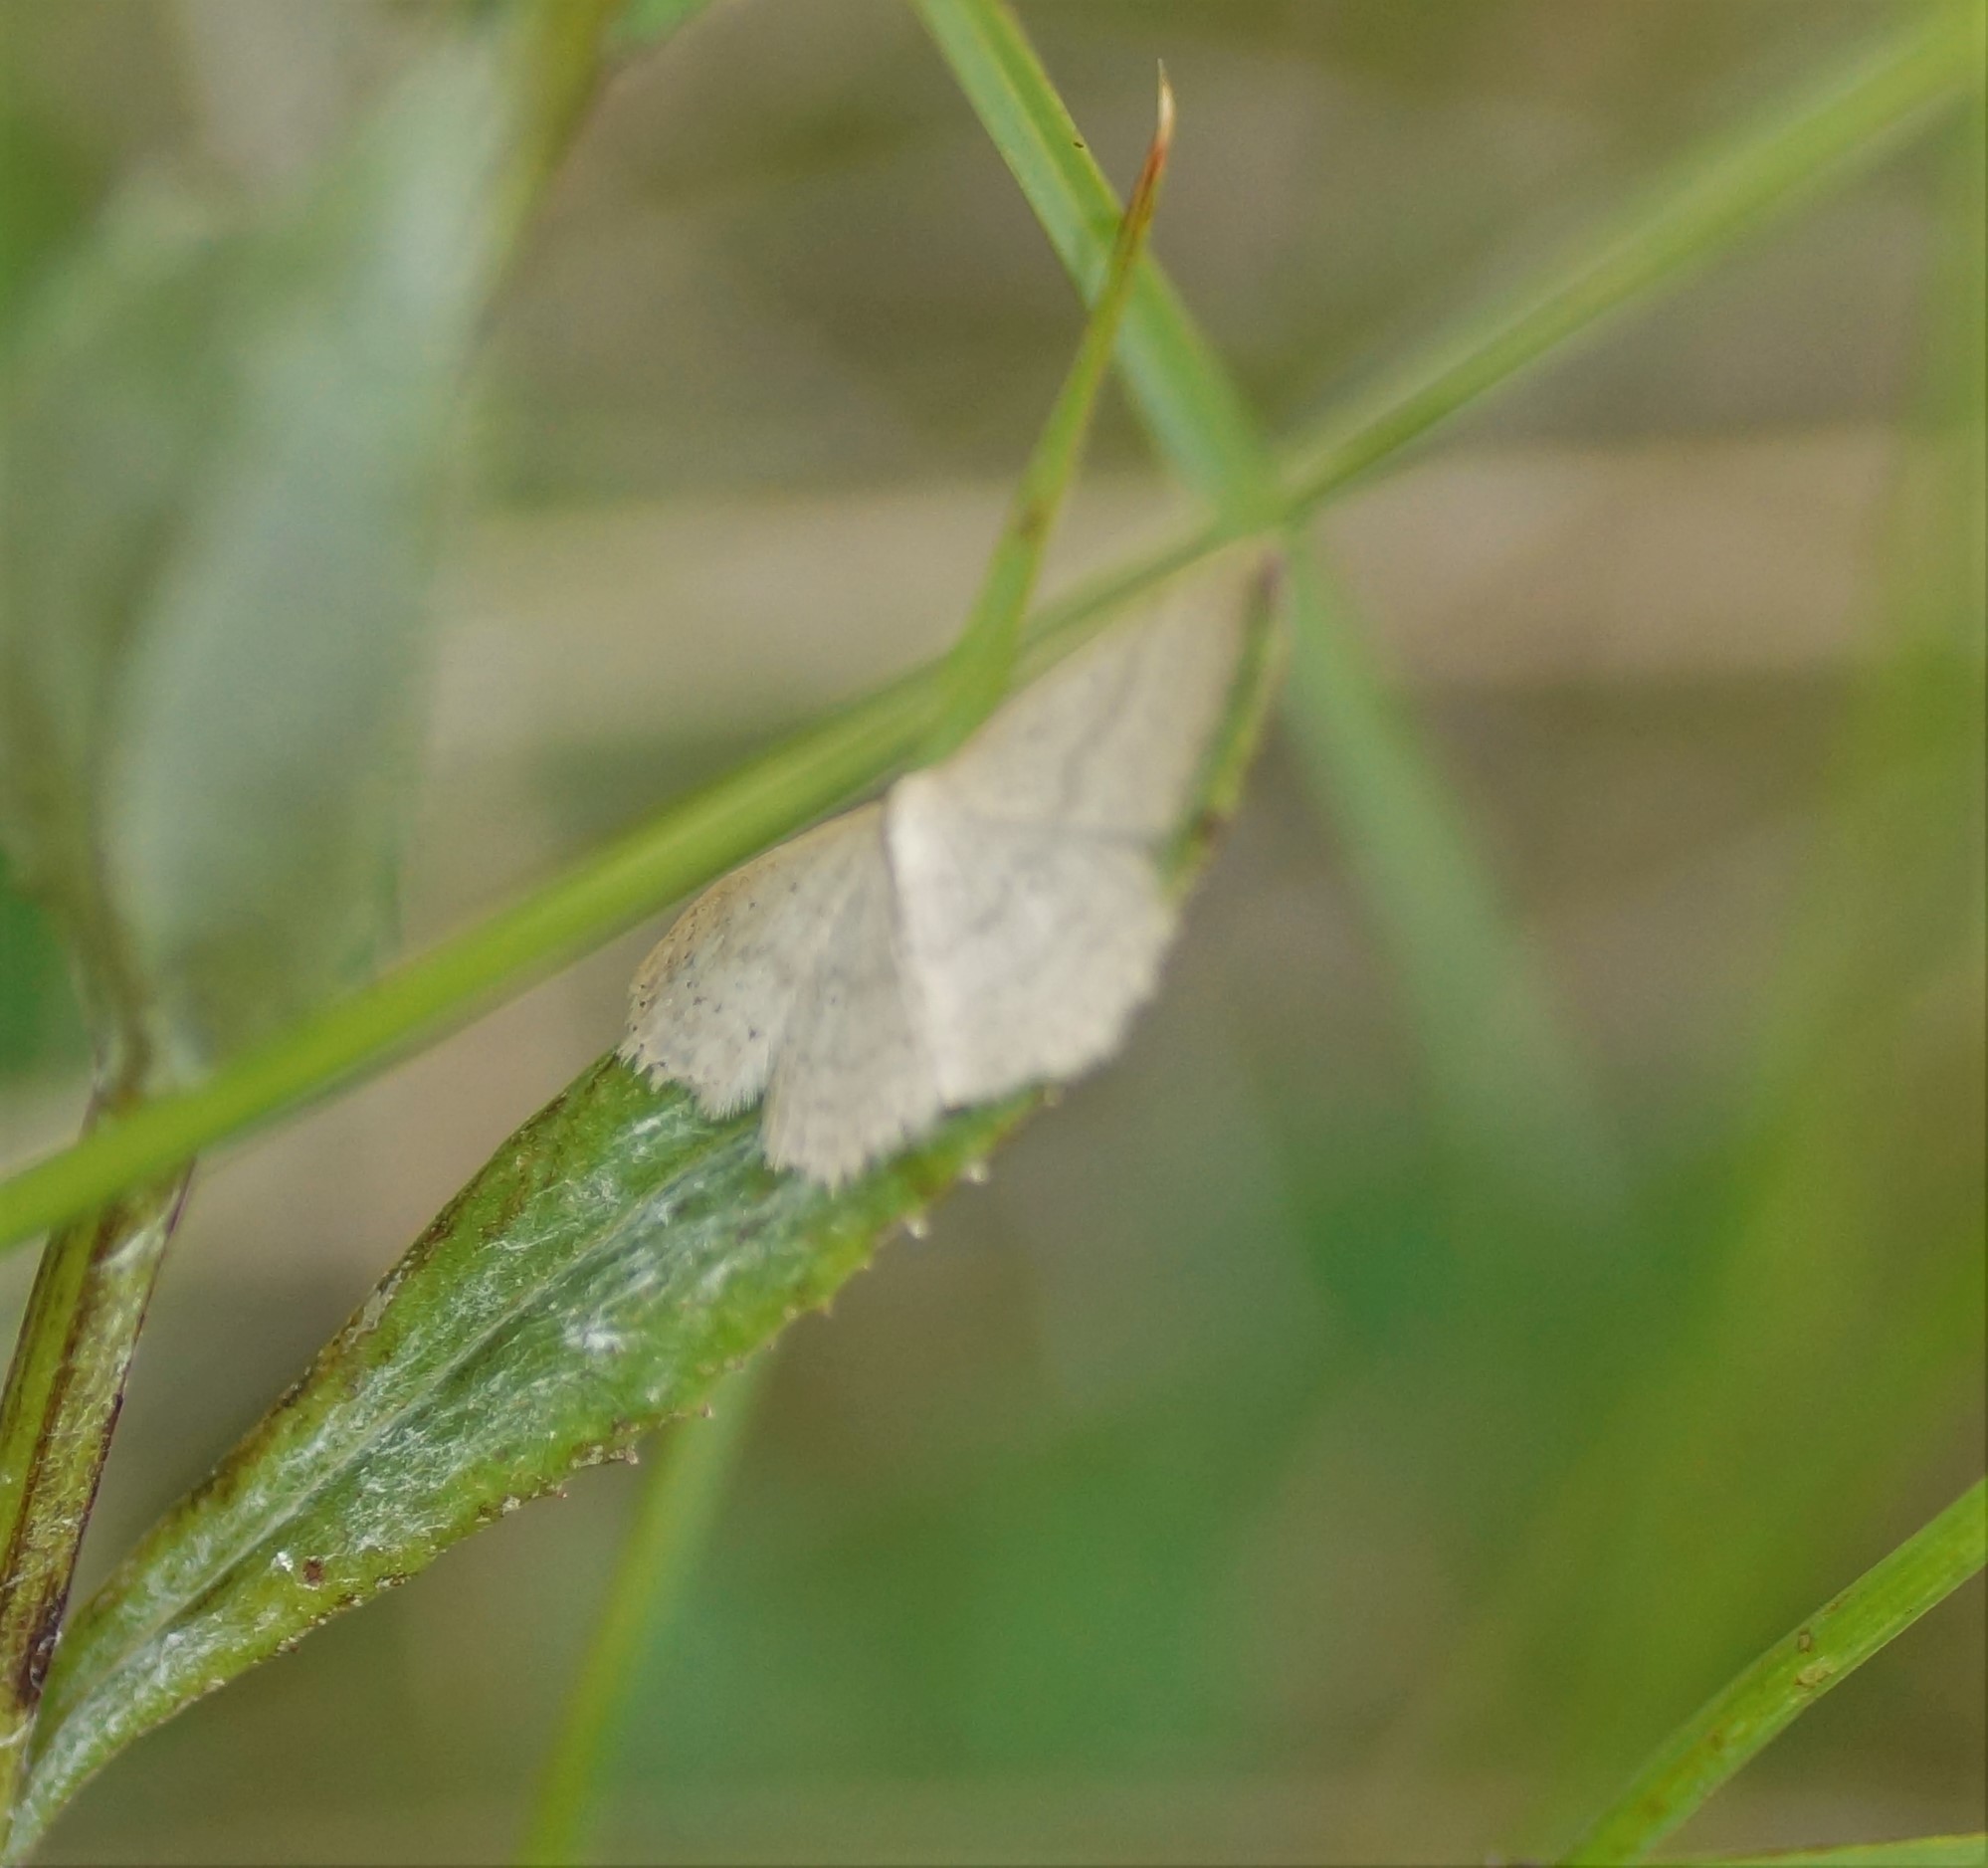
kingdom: Animalia
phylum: Arthropoda
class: Insecta
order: Lepidoptera
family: Geometridae
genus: Scopula
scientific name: Scopula liotis
